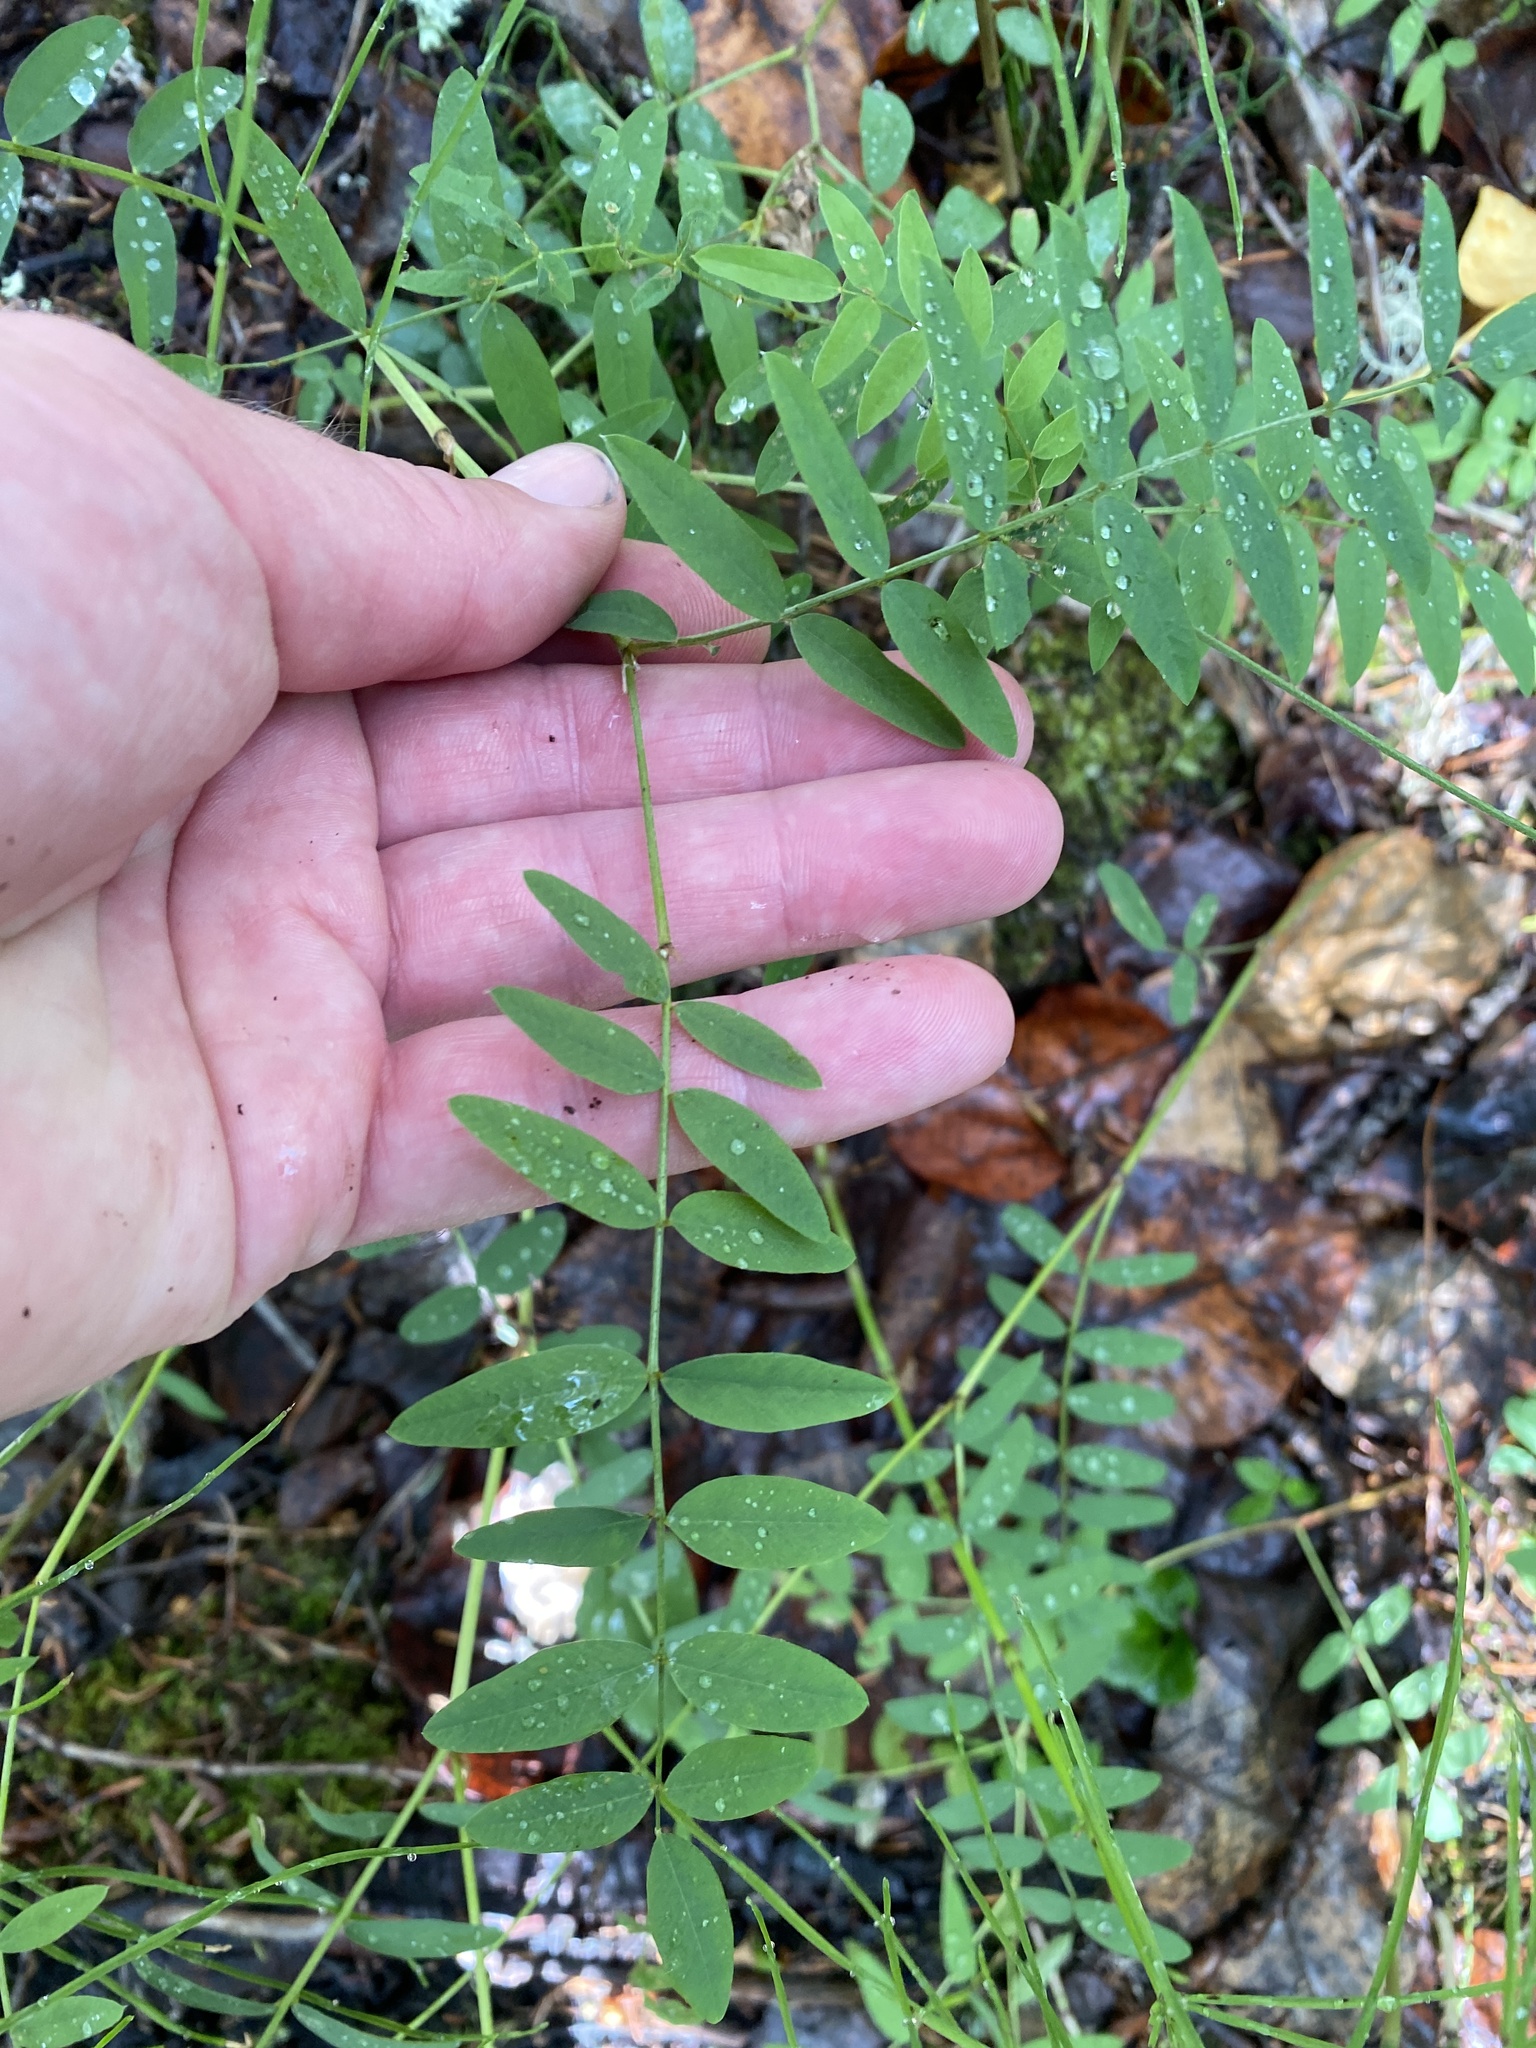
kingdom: Plantae
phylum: Tracheophyta
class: Magnoliopsida
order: Fabales
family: Fabaceae
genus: Hedysarum
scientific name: Hedysarum alpinum
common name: Alpine sweet-vetch
